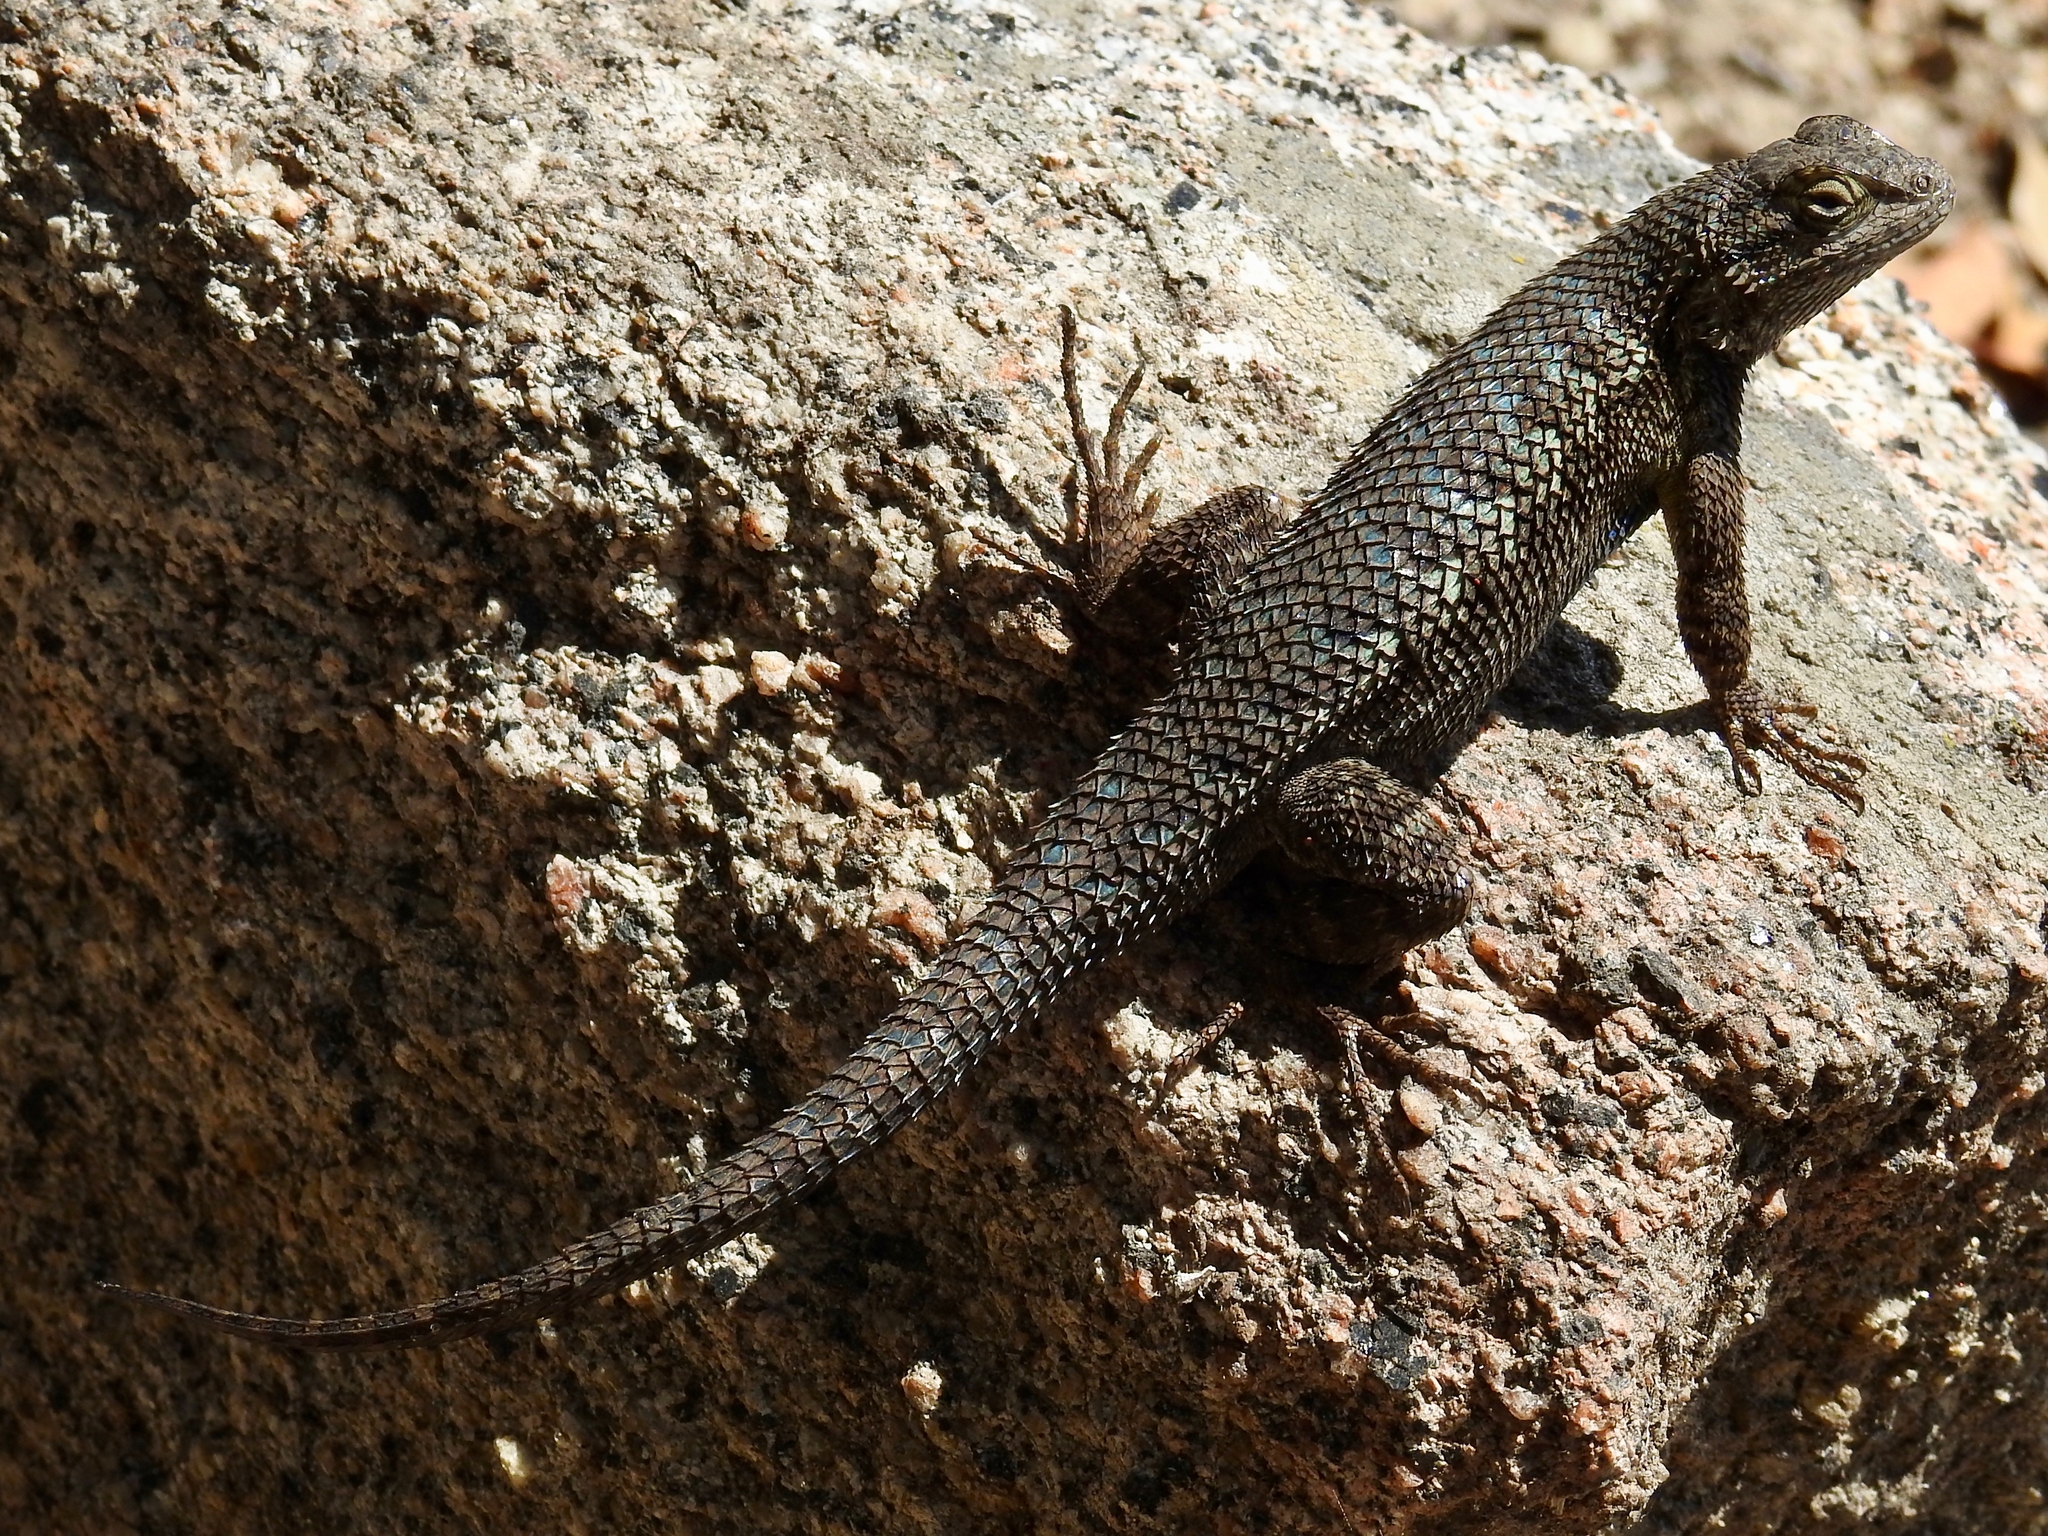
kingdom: Animalia
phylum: Chordata
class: Squamata
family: Phrynosomatidae
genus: Sceloporus
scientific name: Sceloporus occidentalis
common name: Western fence lizard
